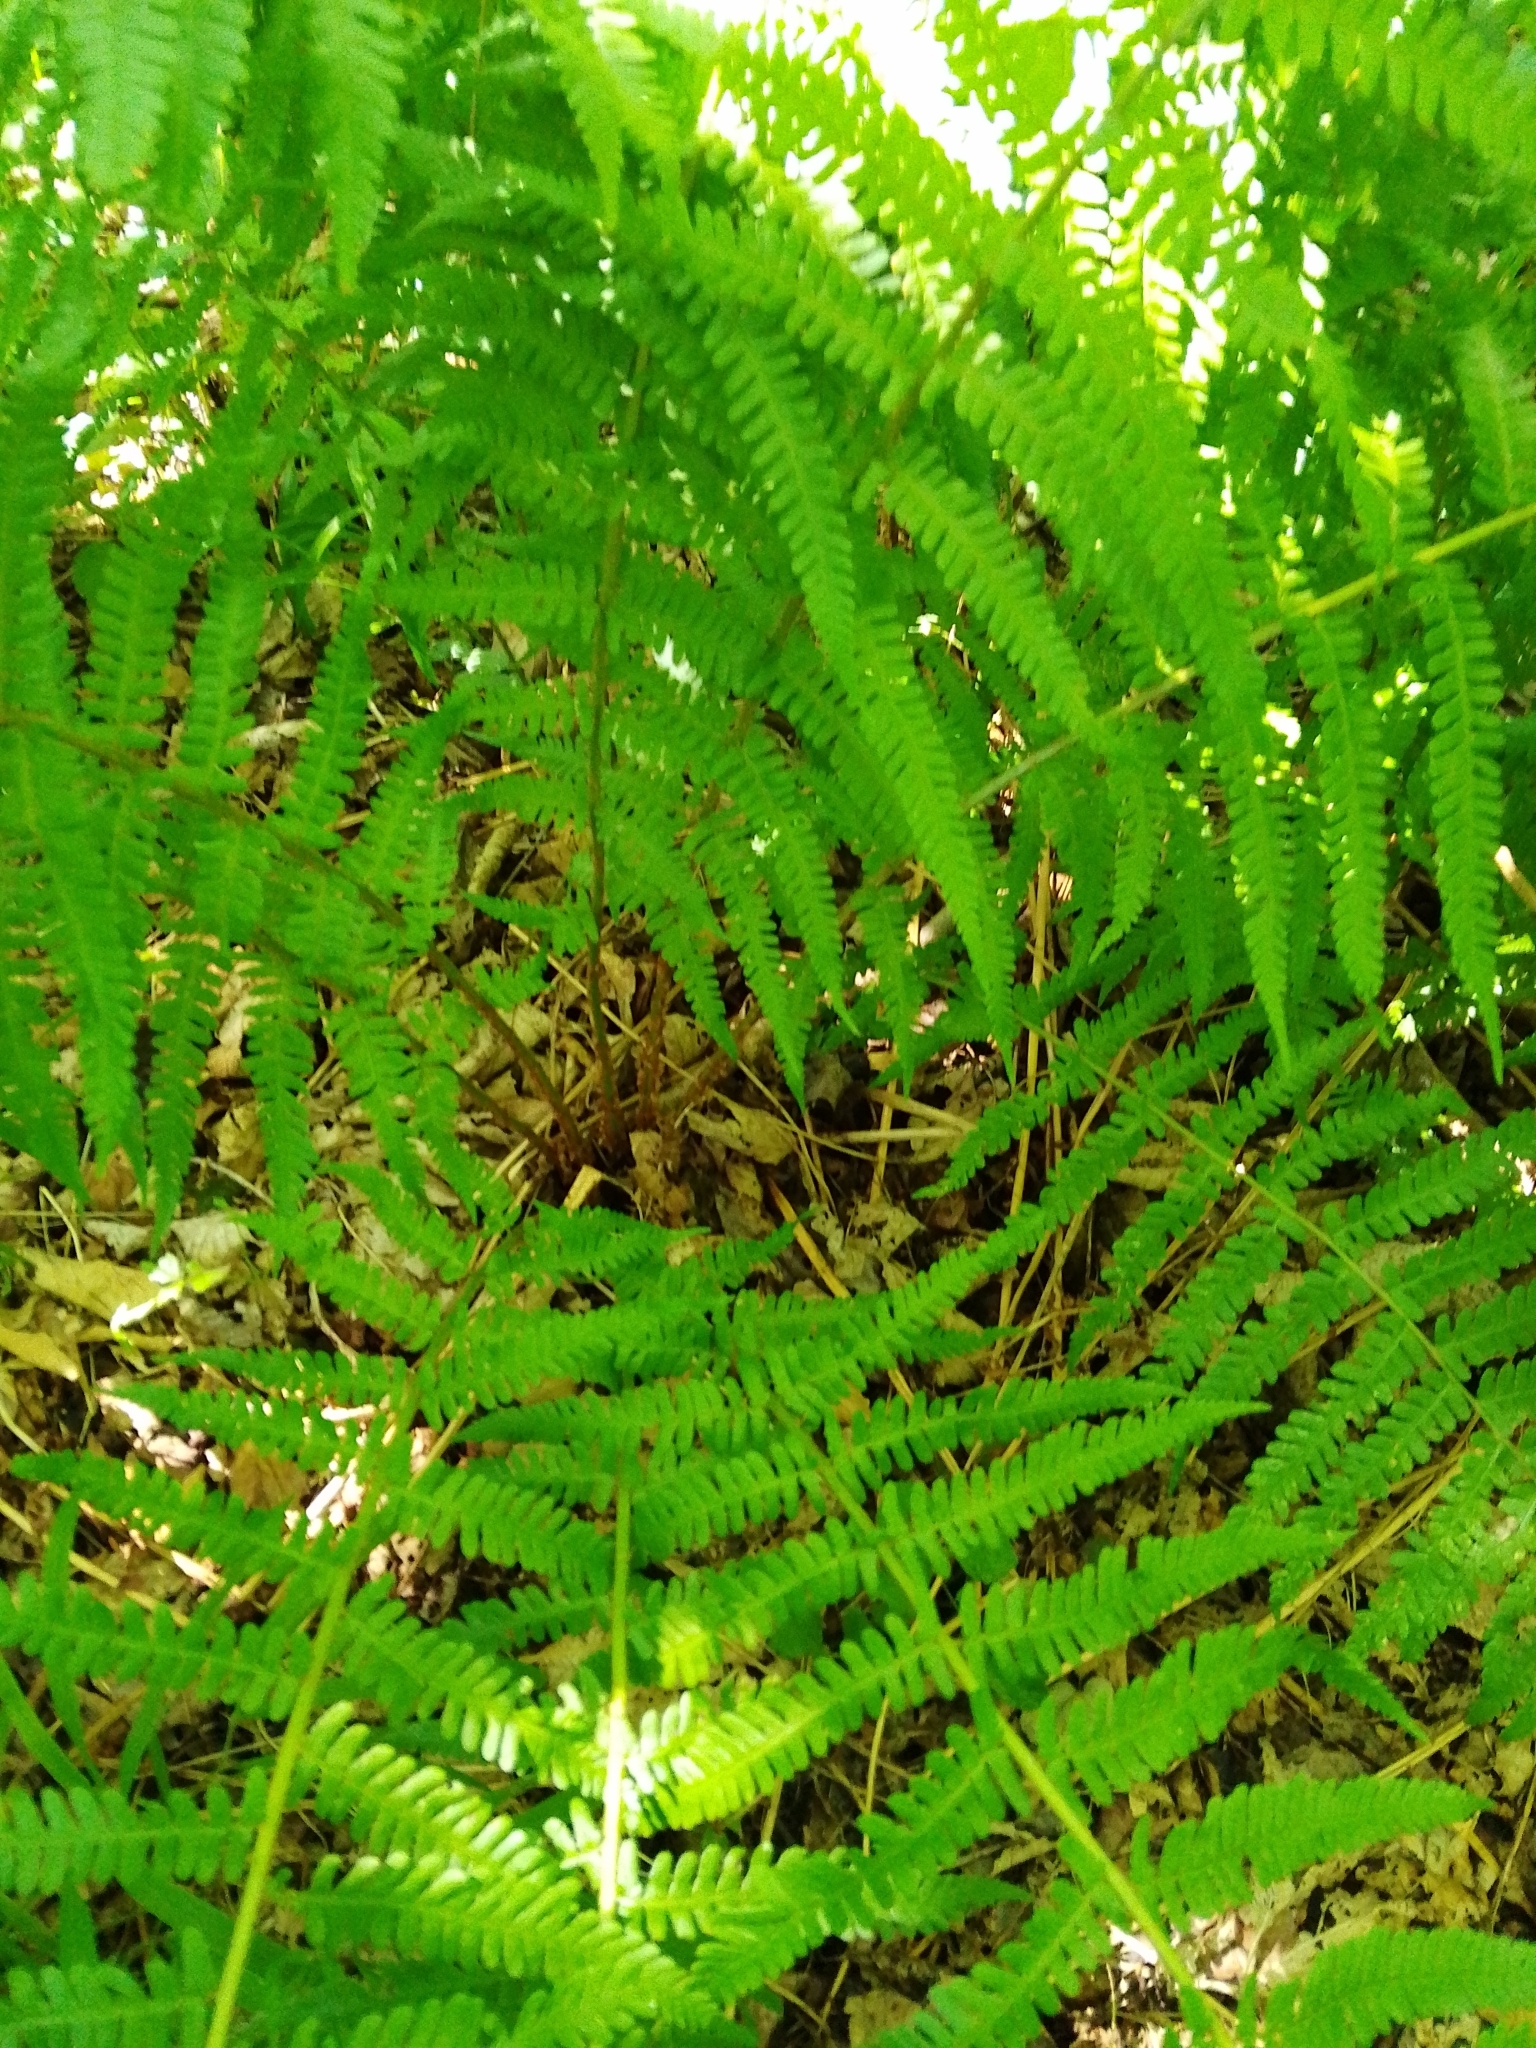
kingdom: Plantae
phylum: Tracheophyta
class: Polypodiopsida
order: Polypodiales
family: Dryopteridaceae
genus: Dryopteris
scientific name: Dryopteris filix-mas
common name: Male fern
